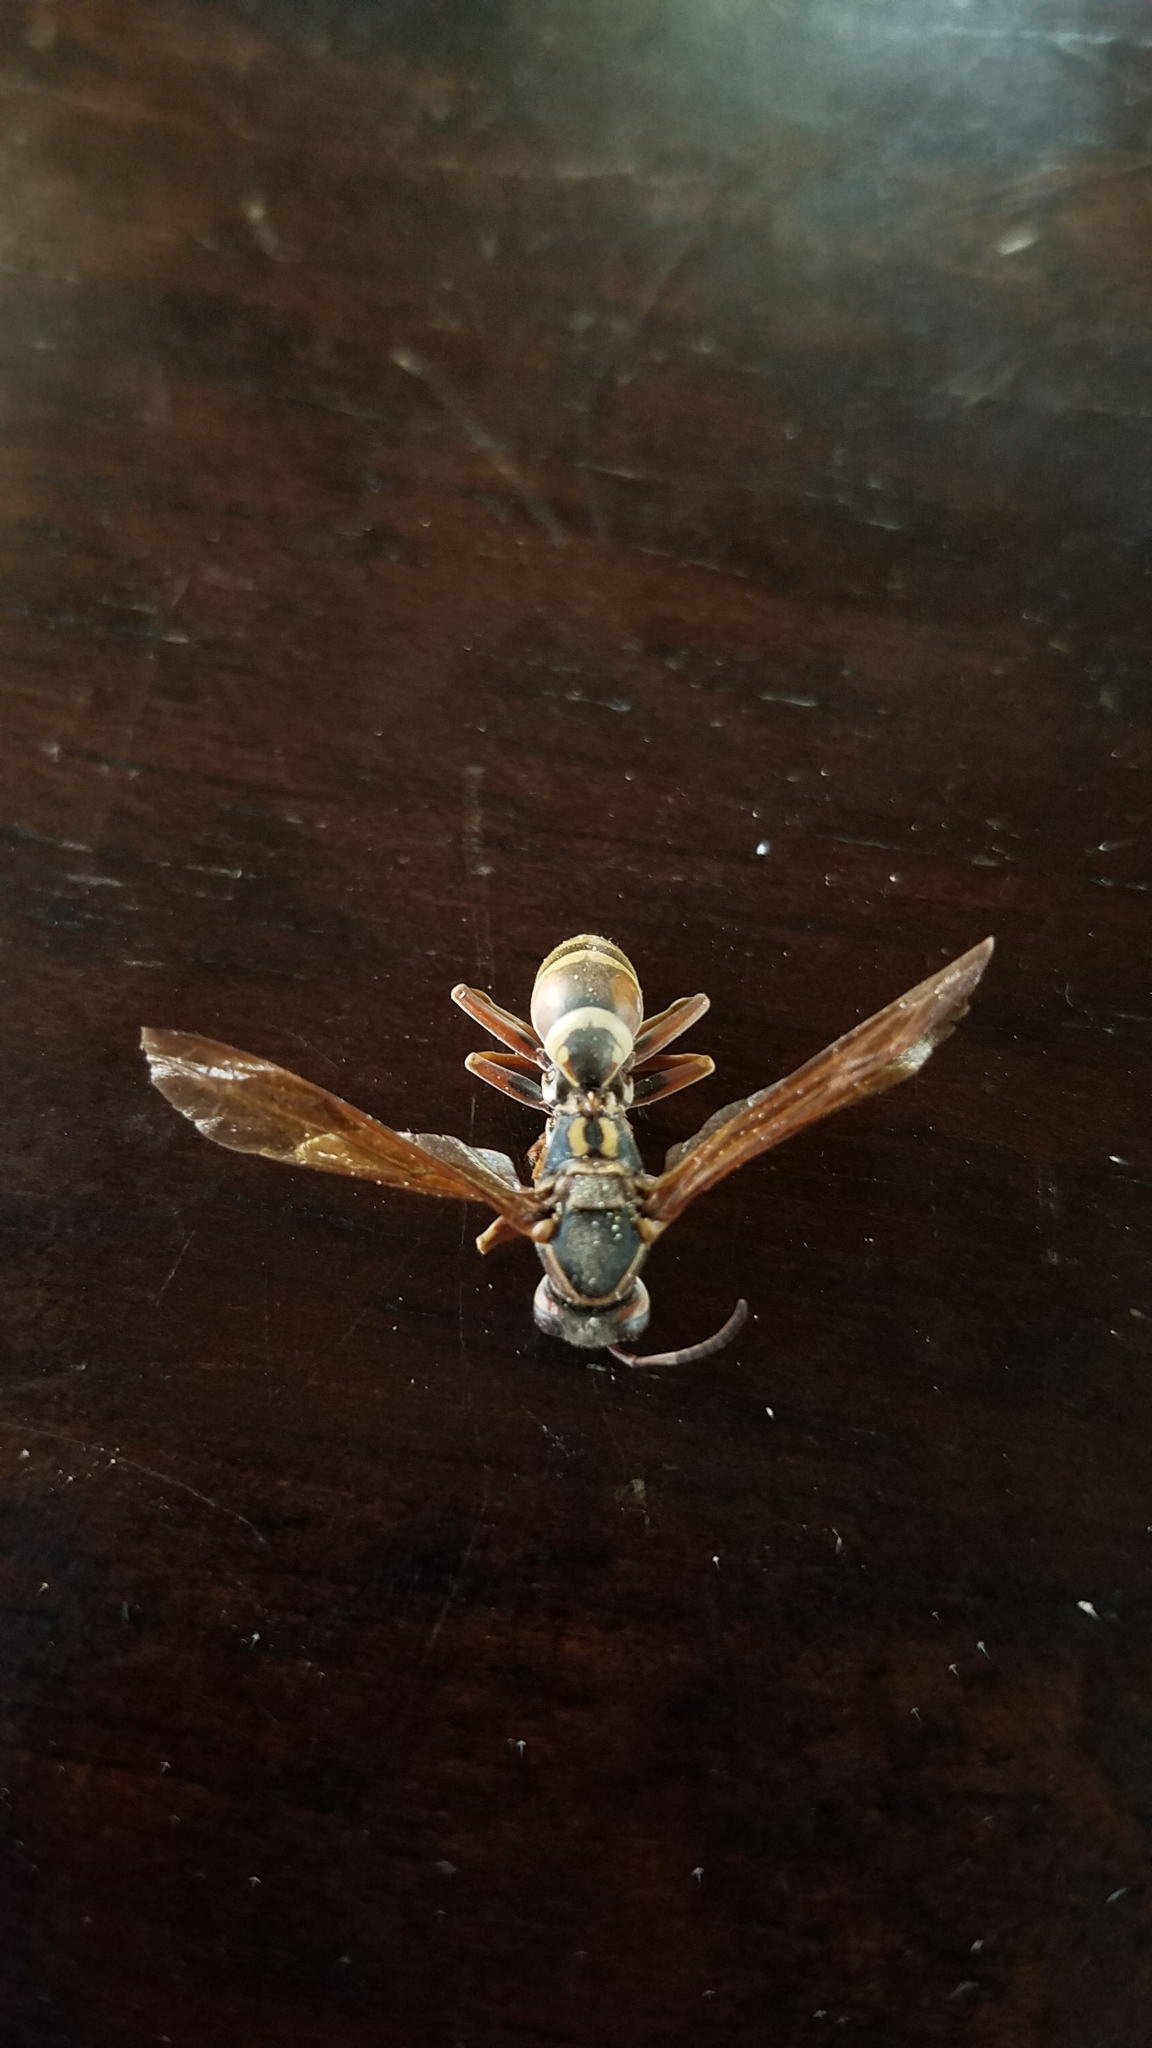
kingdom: Animalia
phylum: Arthropoda
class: Insecta
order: Hymenoptera
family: Eumenidae
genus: Polistes
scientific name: Polistes fuscatus
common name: Dark paper wasp
